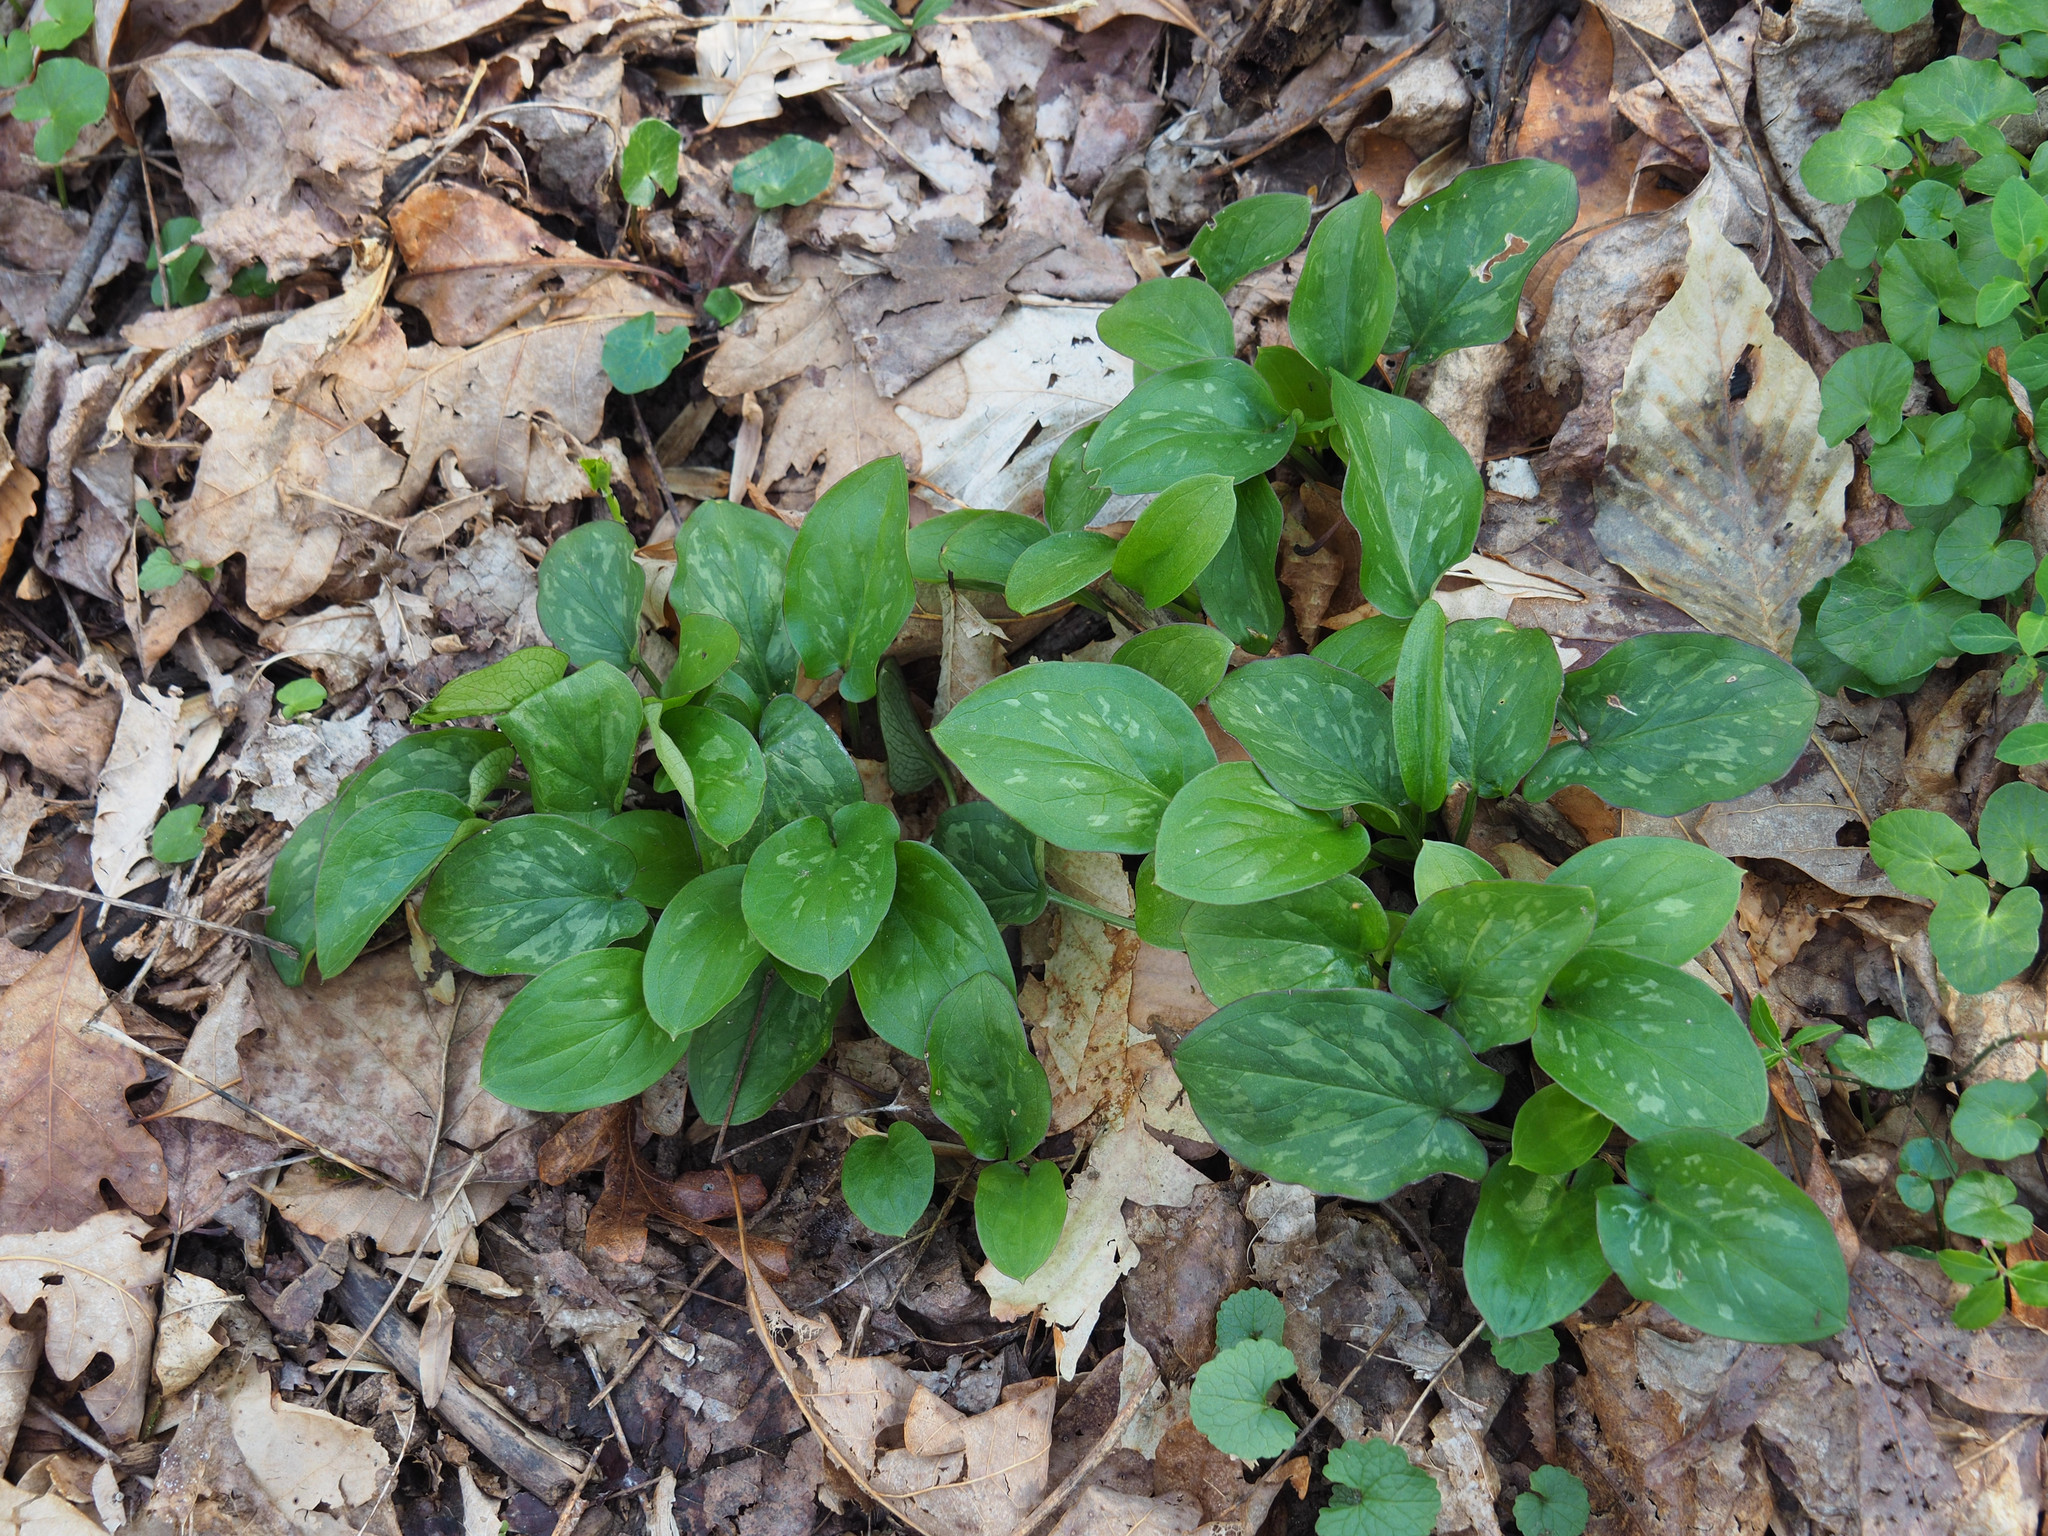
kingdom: Plantae
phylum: Tracheophyta
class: Liliopsida
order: Alismatales
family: Araceae
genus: Arum
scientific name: Arum italicum
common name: Italian lords-and-ladies
